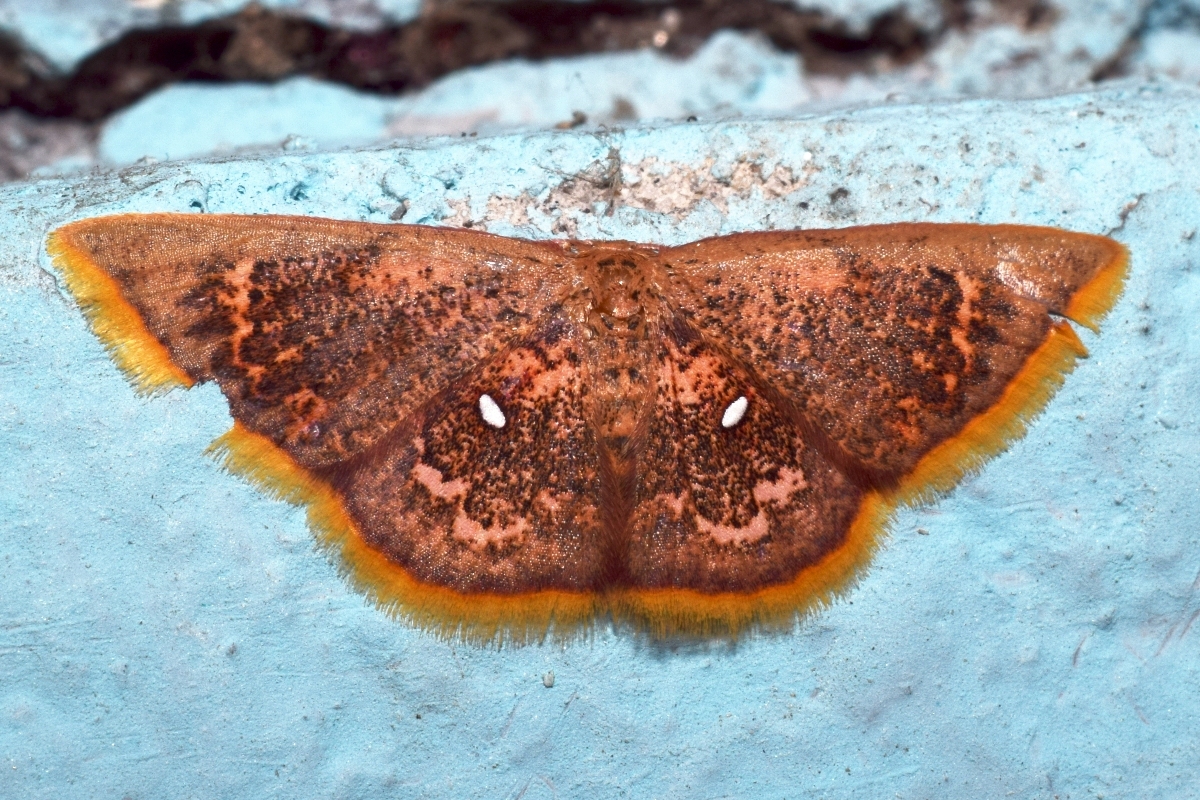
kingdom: Animalia
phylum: Arthropoda
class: Insecta
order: Lepidoptera
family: Geometridae
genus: Chrysocraspeda
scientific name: Chrysocraspeda sanguinea
